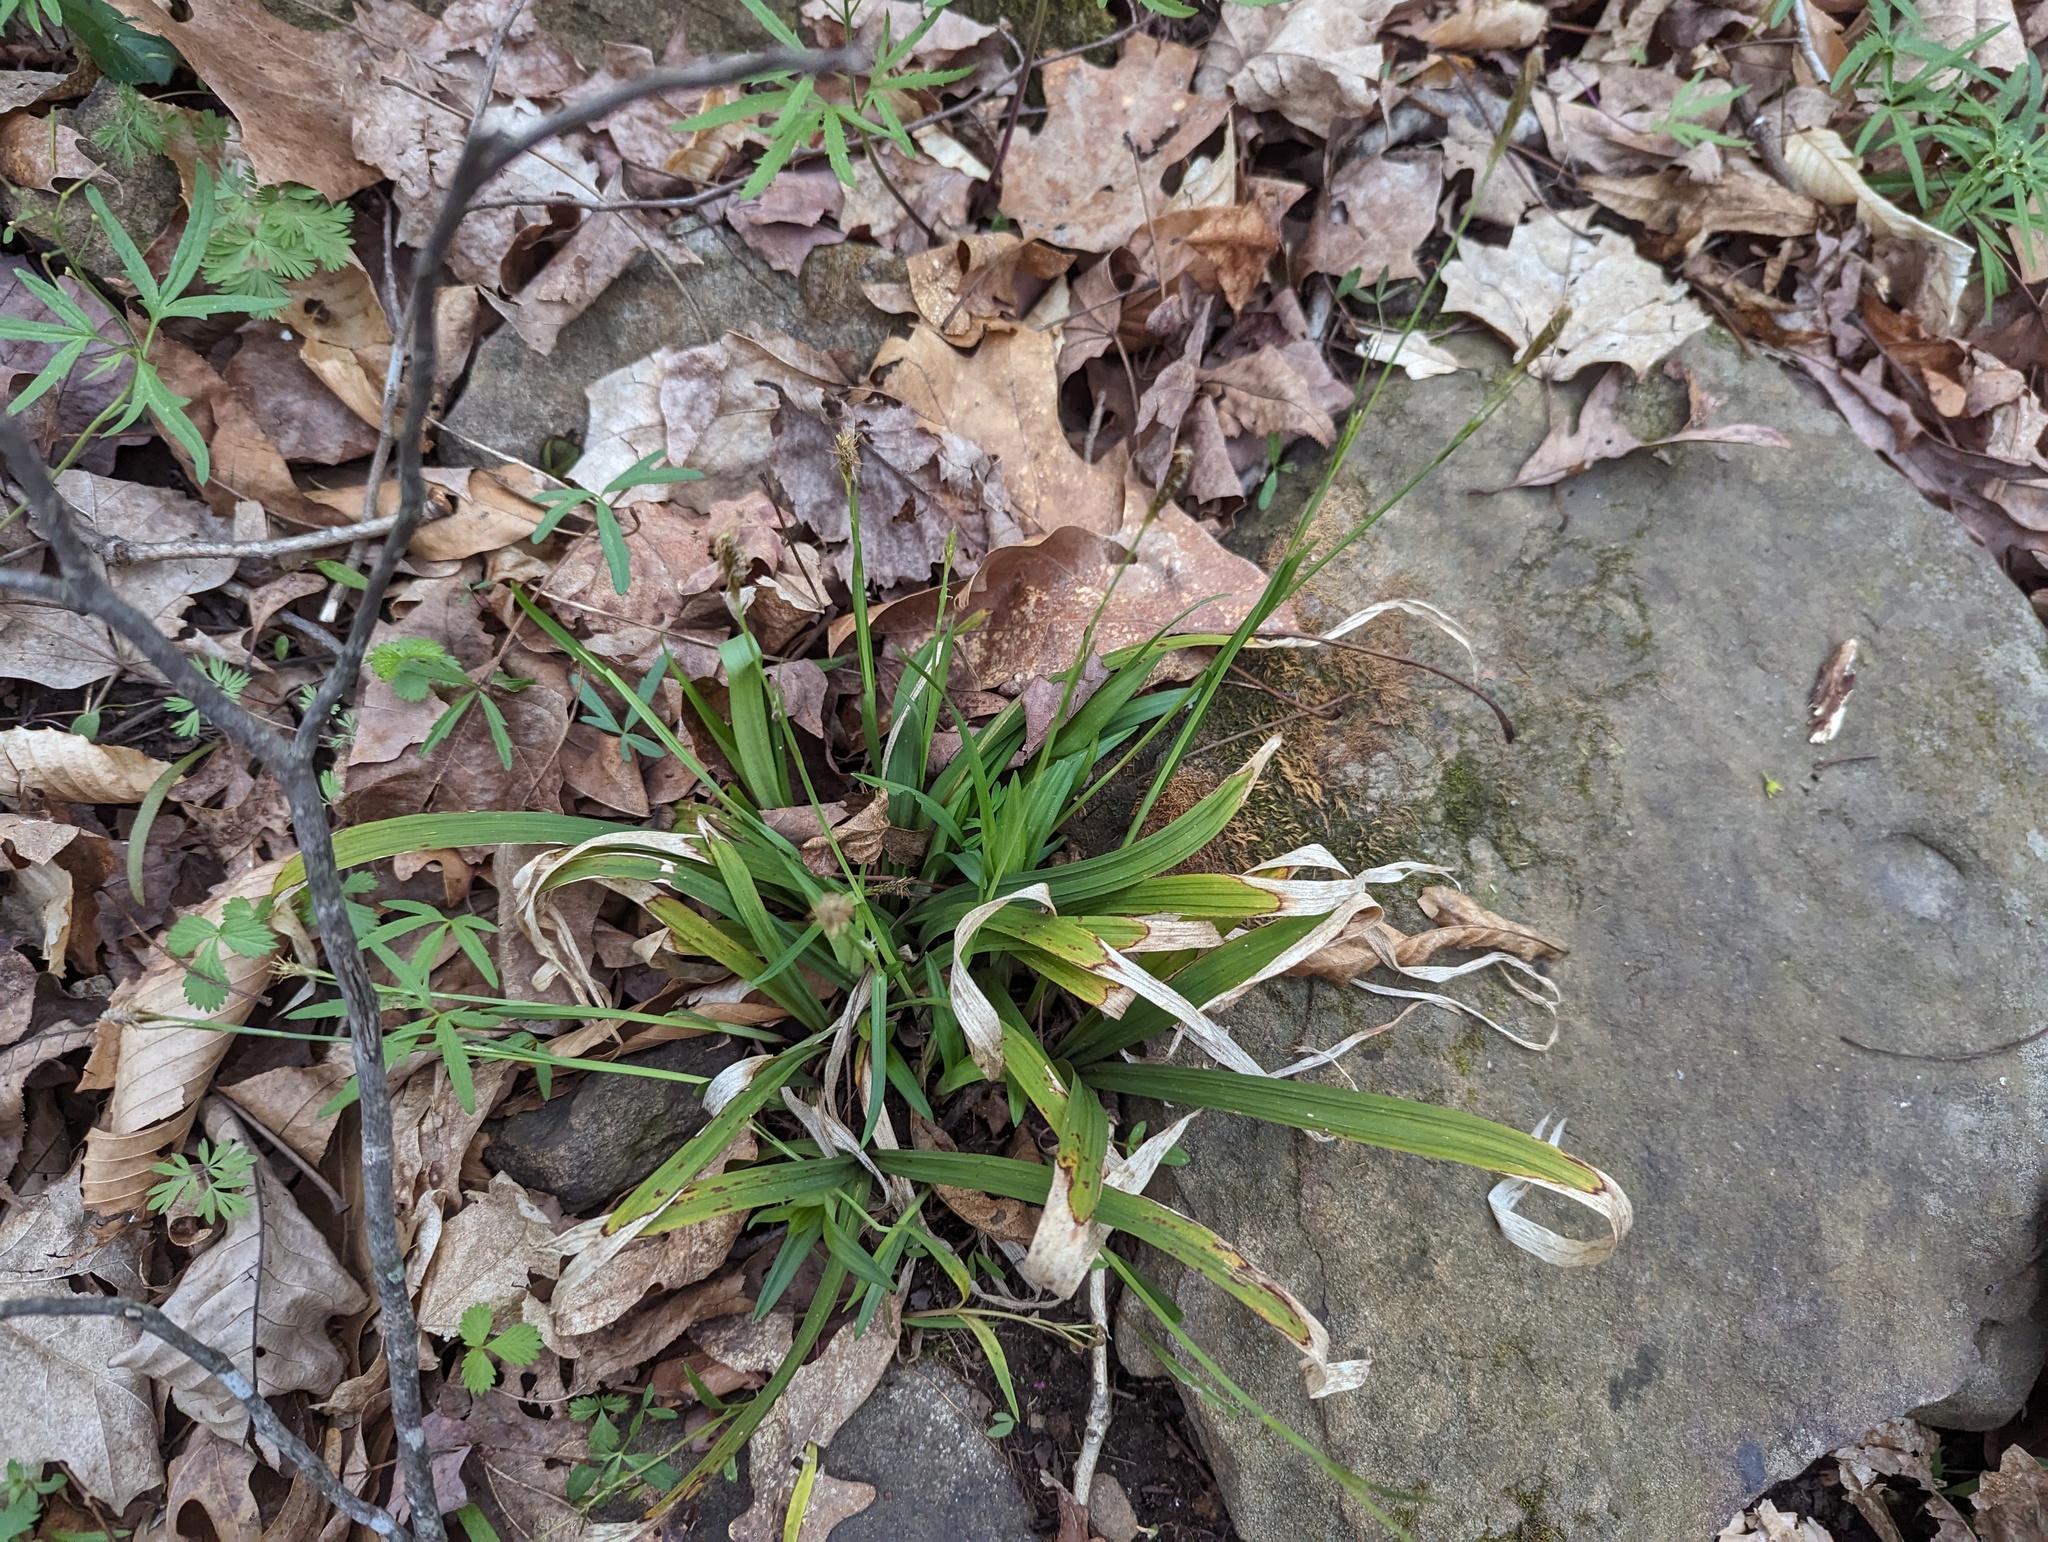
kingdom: Plantae
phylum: Tracheophyta
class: Liliopsida
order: Poales
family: Cyperaceae
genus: Carex
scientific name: Carex careyana
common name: Carey's sedge
